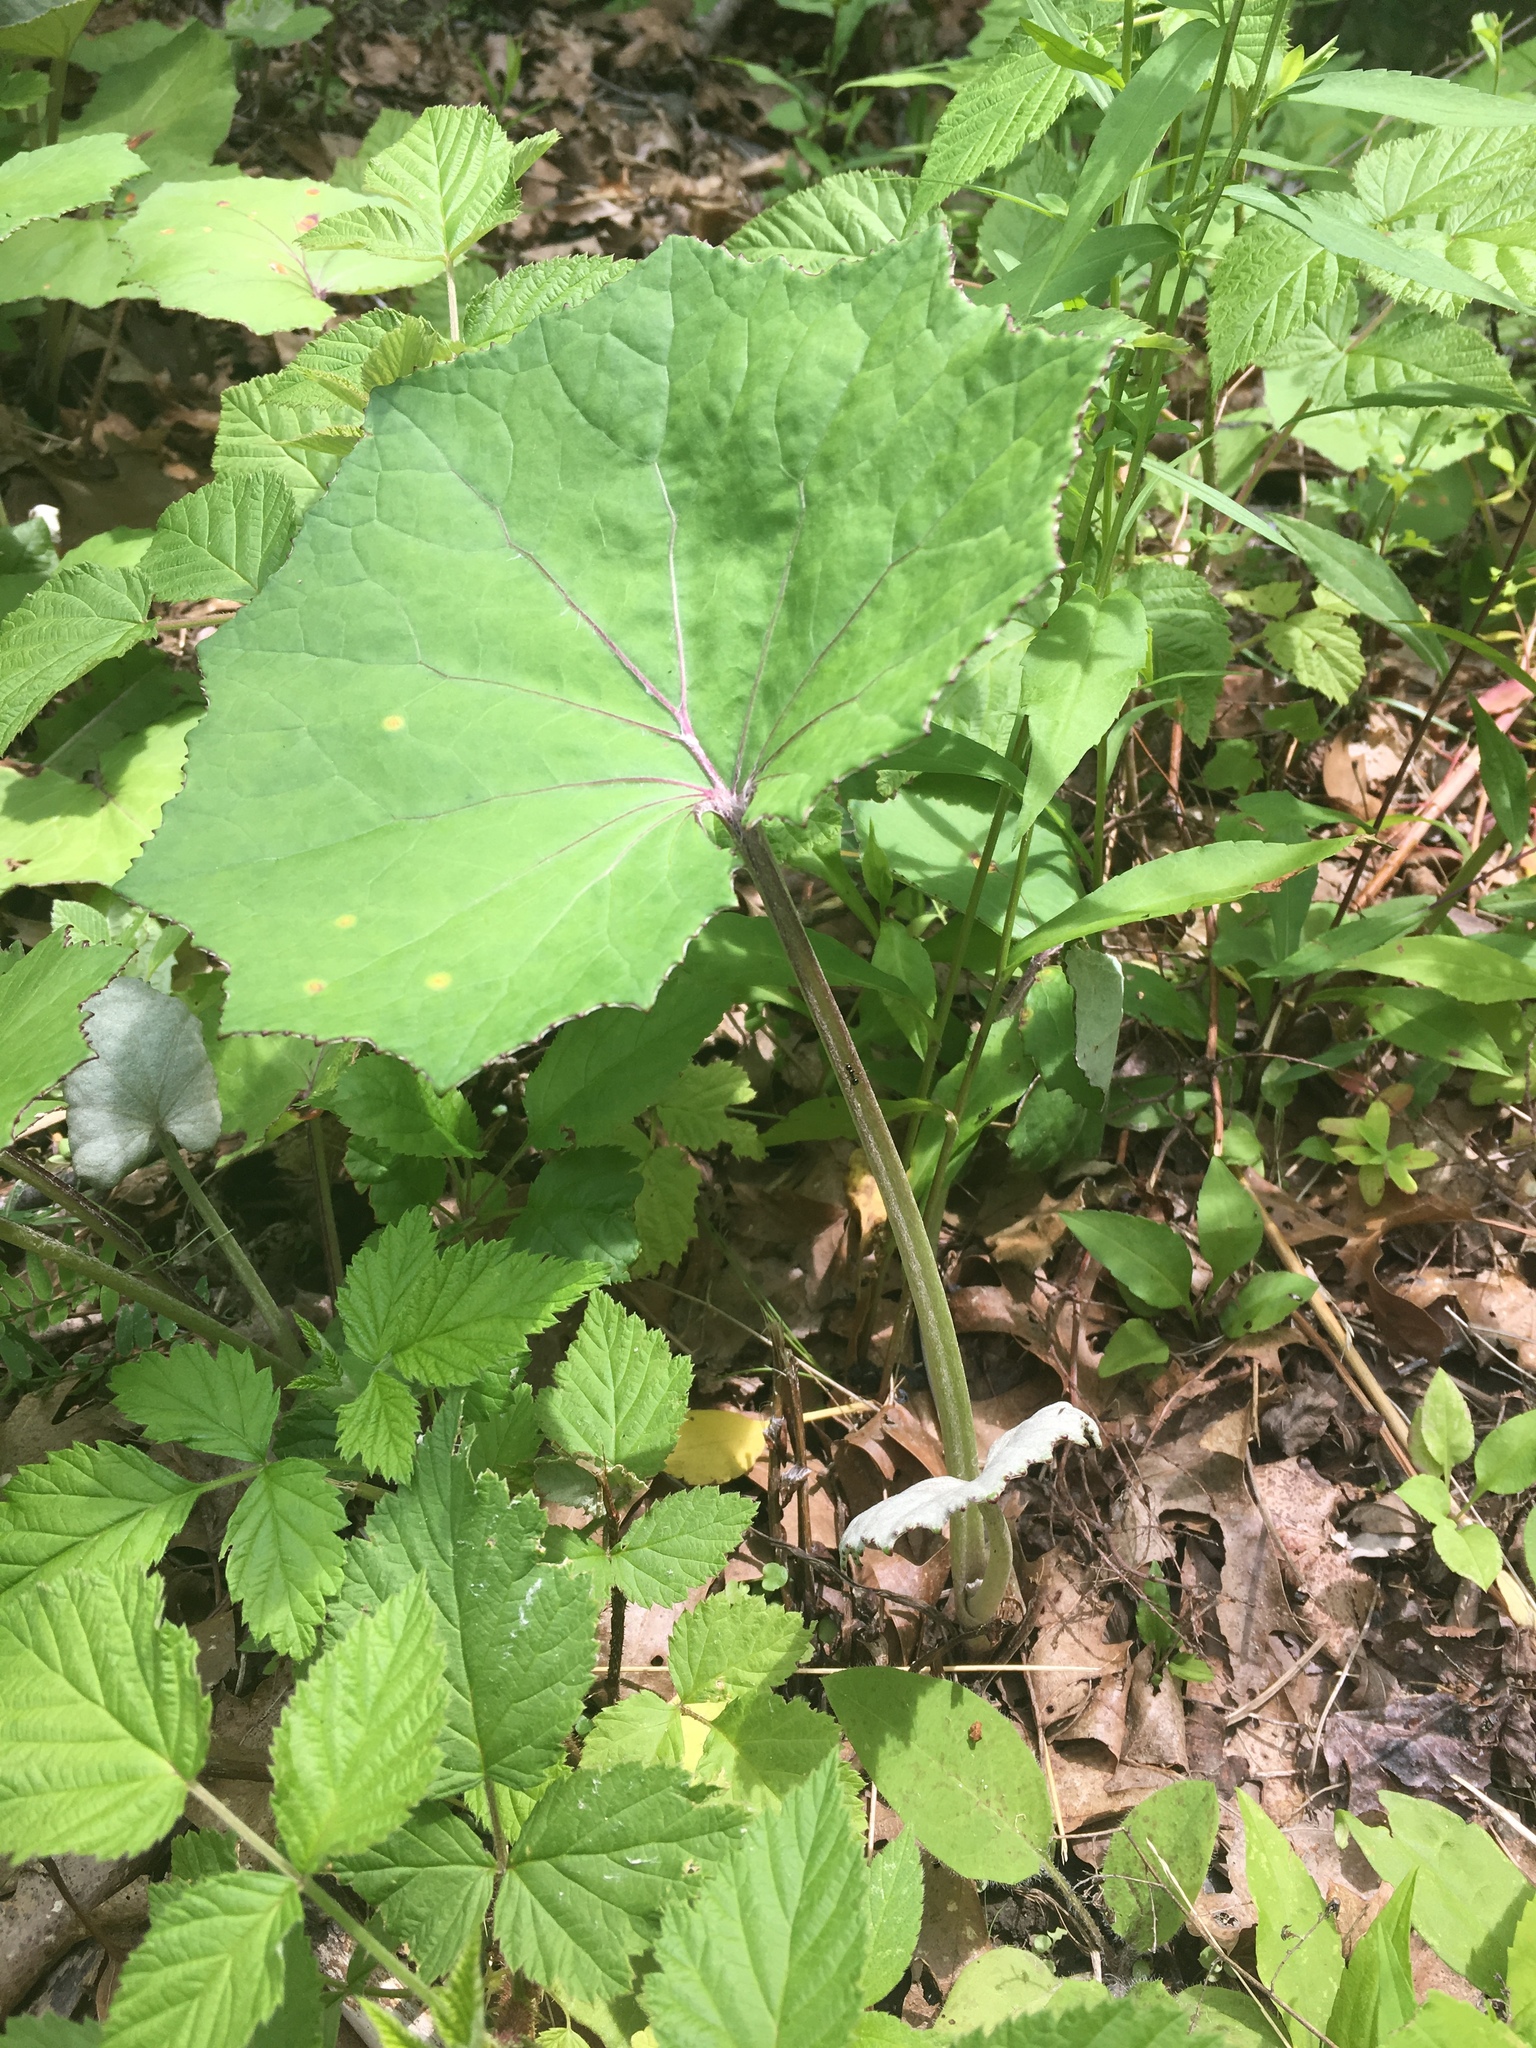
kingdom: Plantae
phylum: Tracheophyta
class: Magnoliopsida
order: Asterales
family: Asteraceae
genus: Tussilago
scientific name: Tussilago farfara
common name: Coltsfoot
